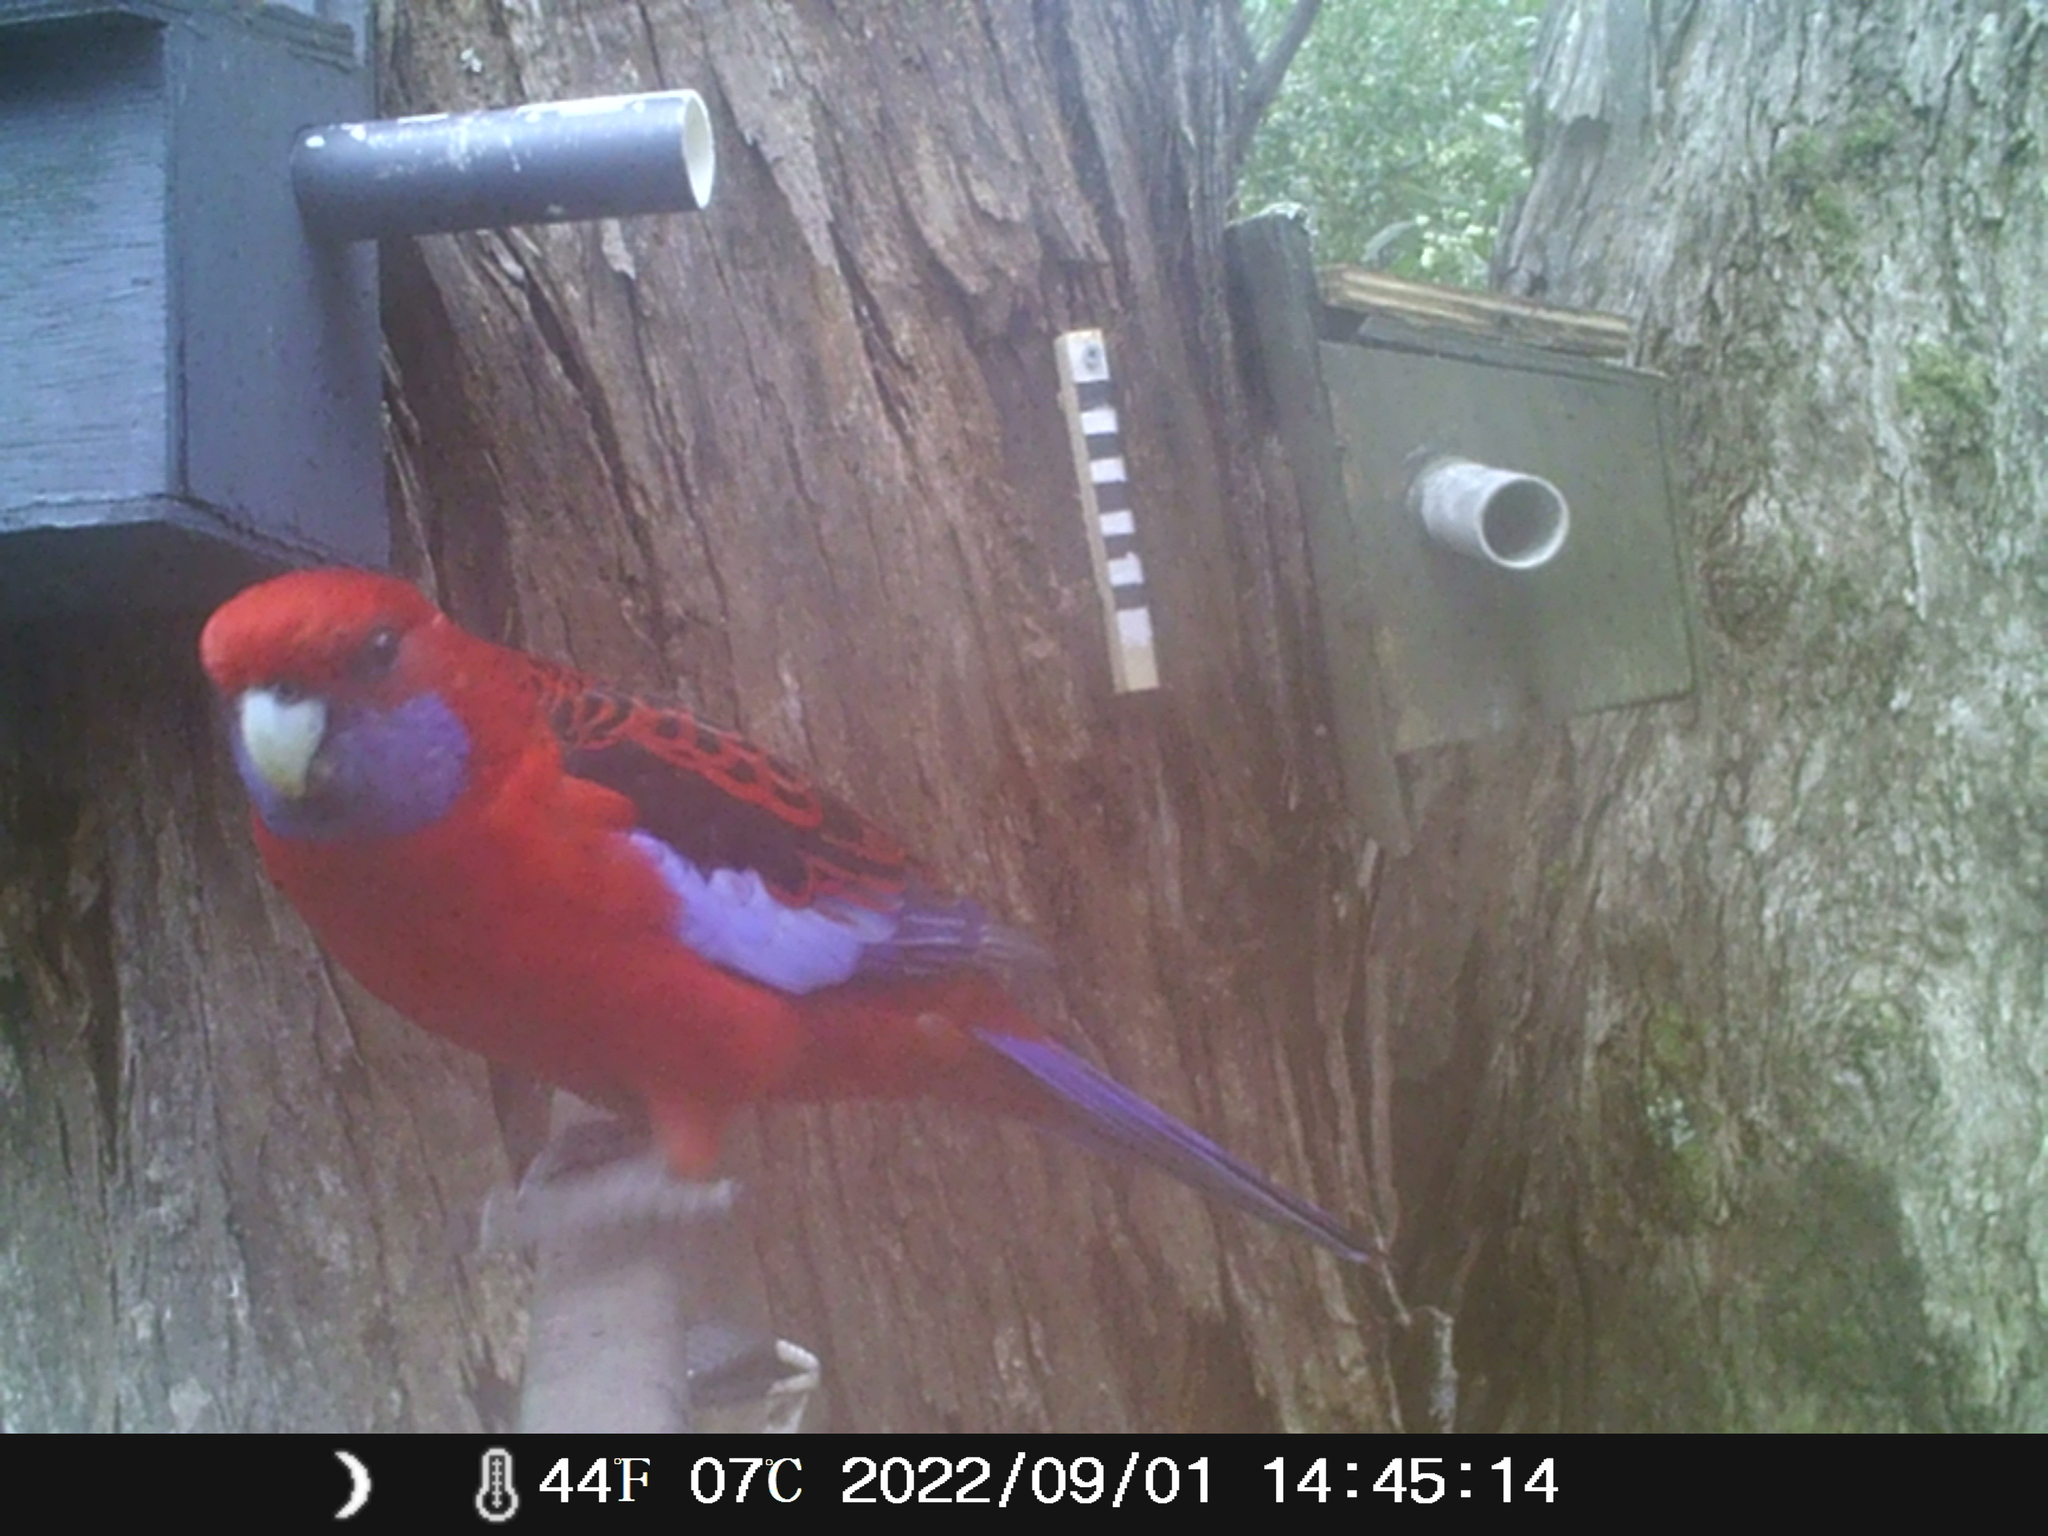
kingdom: Animalia
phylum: Chordata
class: Aves
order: Psittaciformes
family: Psittacidae
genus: Platycercus
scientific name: Platycercus elegans
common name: Crimson rosella
